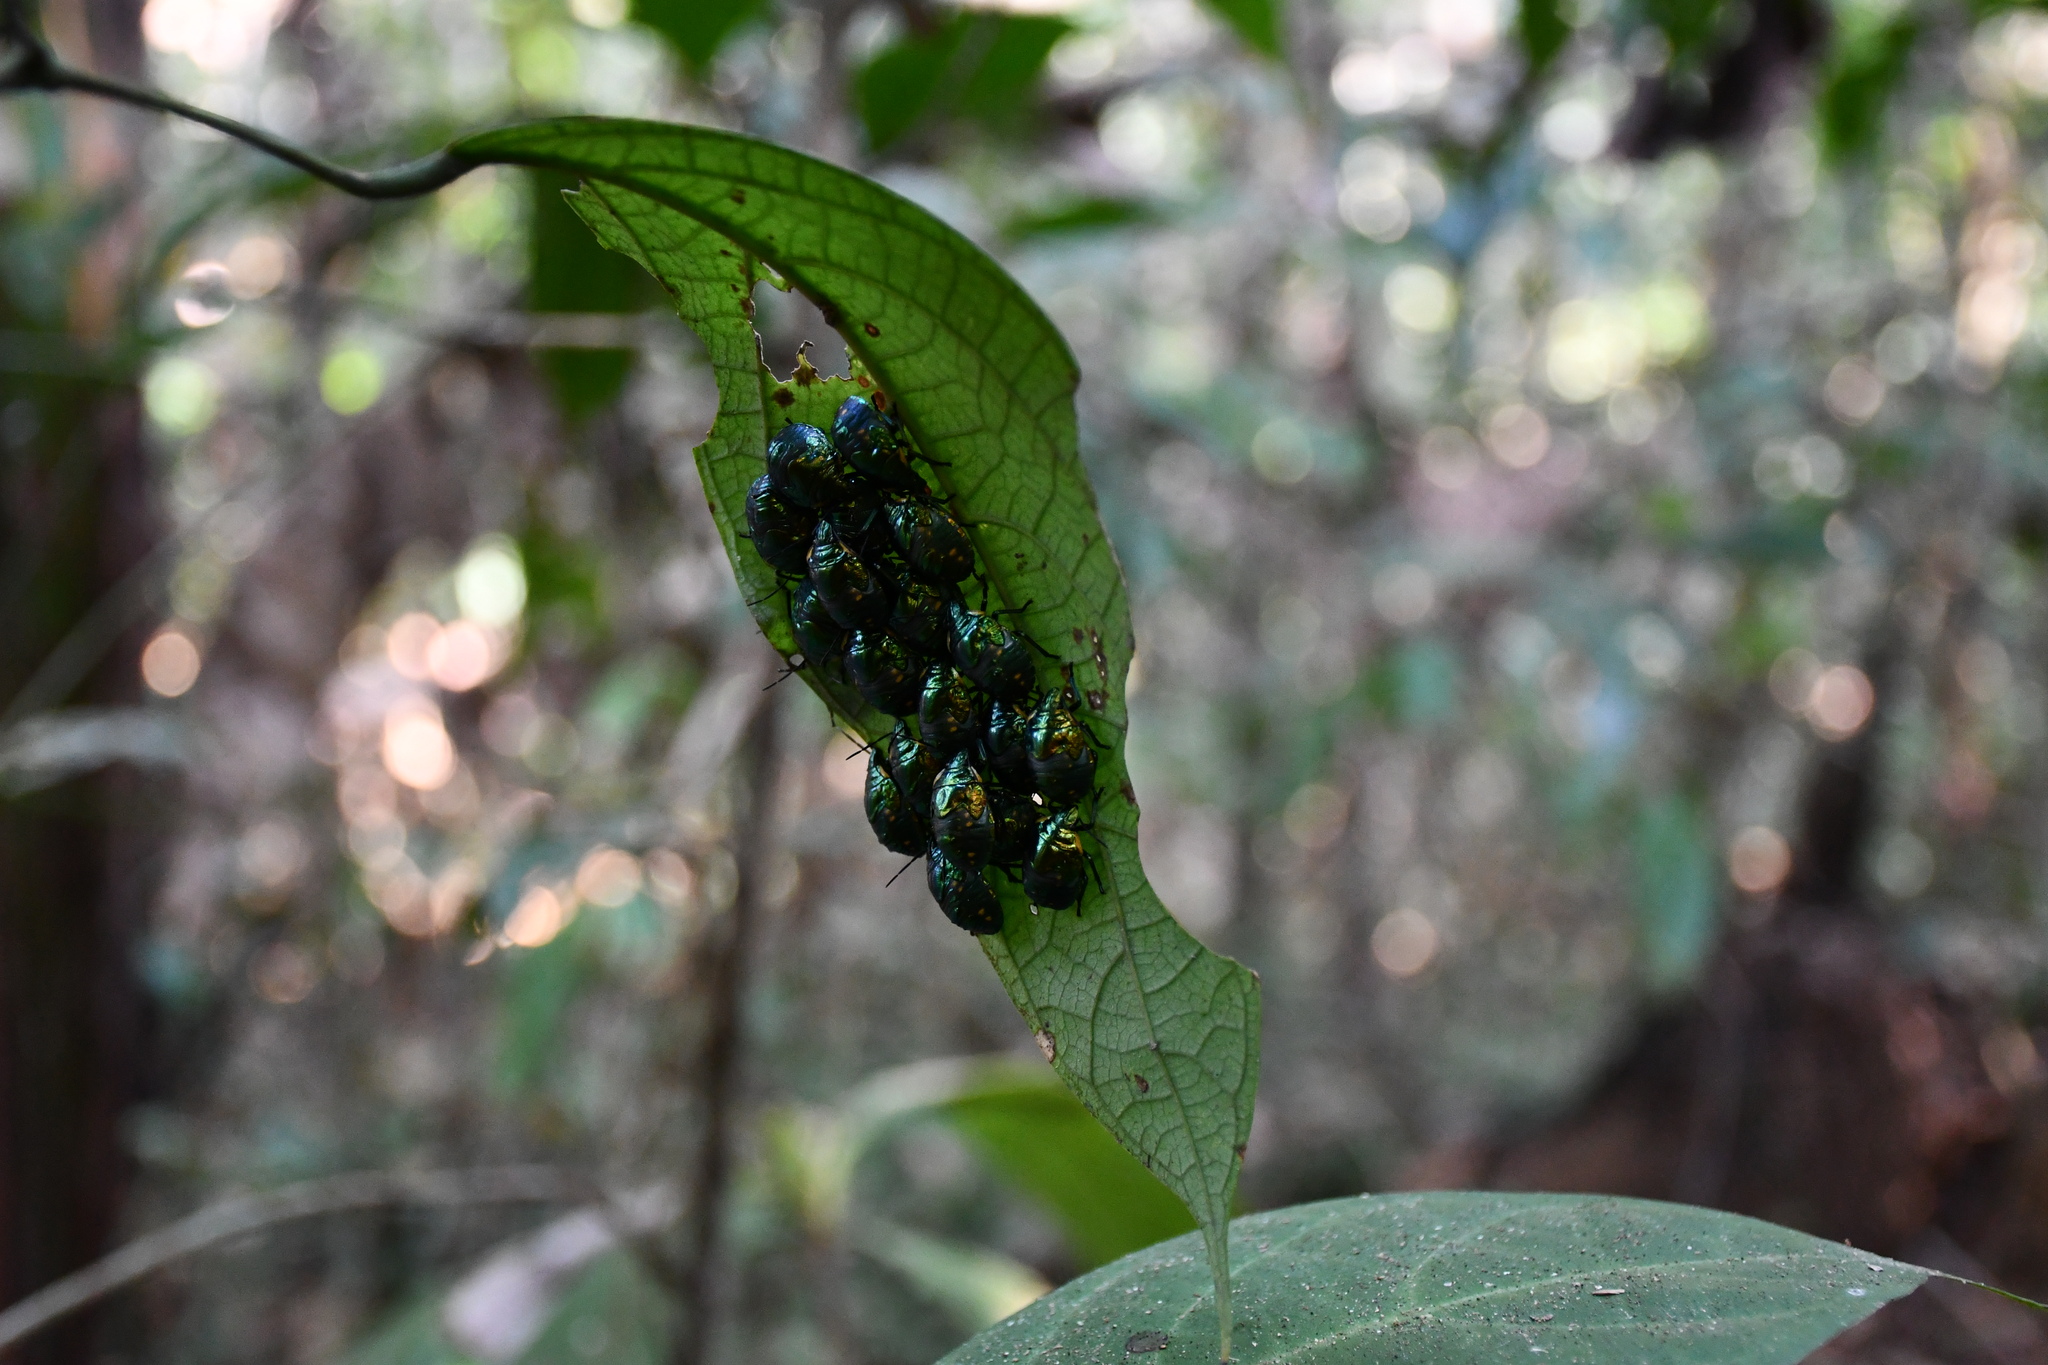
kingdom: Animalia
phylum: Arthropoda
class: Insecta
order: Coleoptera
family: Scarabaeidae
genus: Macraspis
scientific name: Macraspis chrysis
